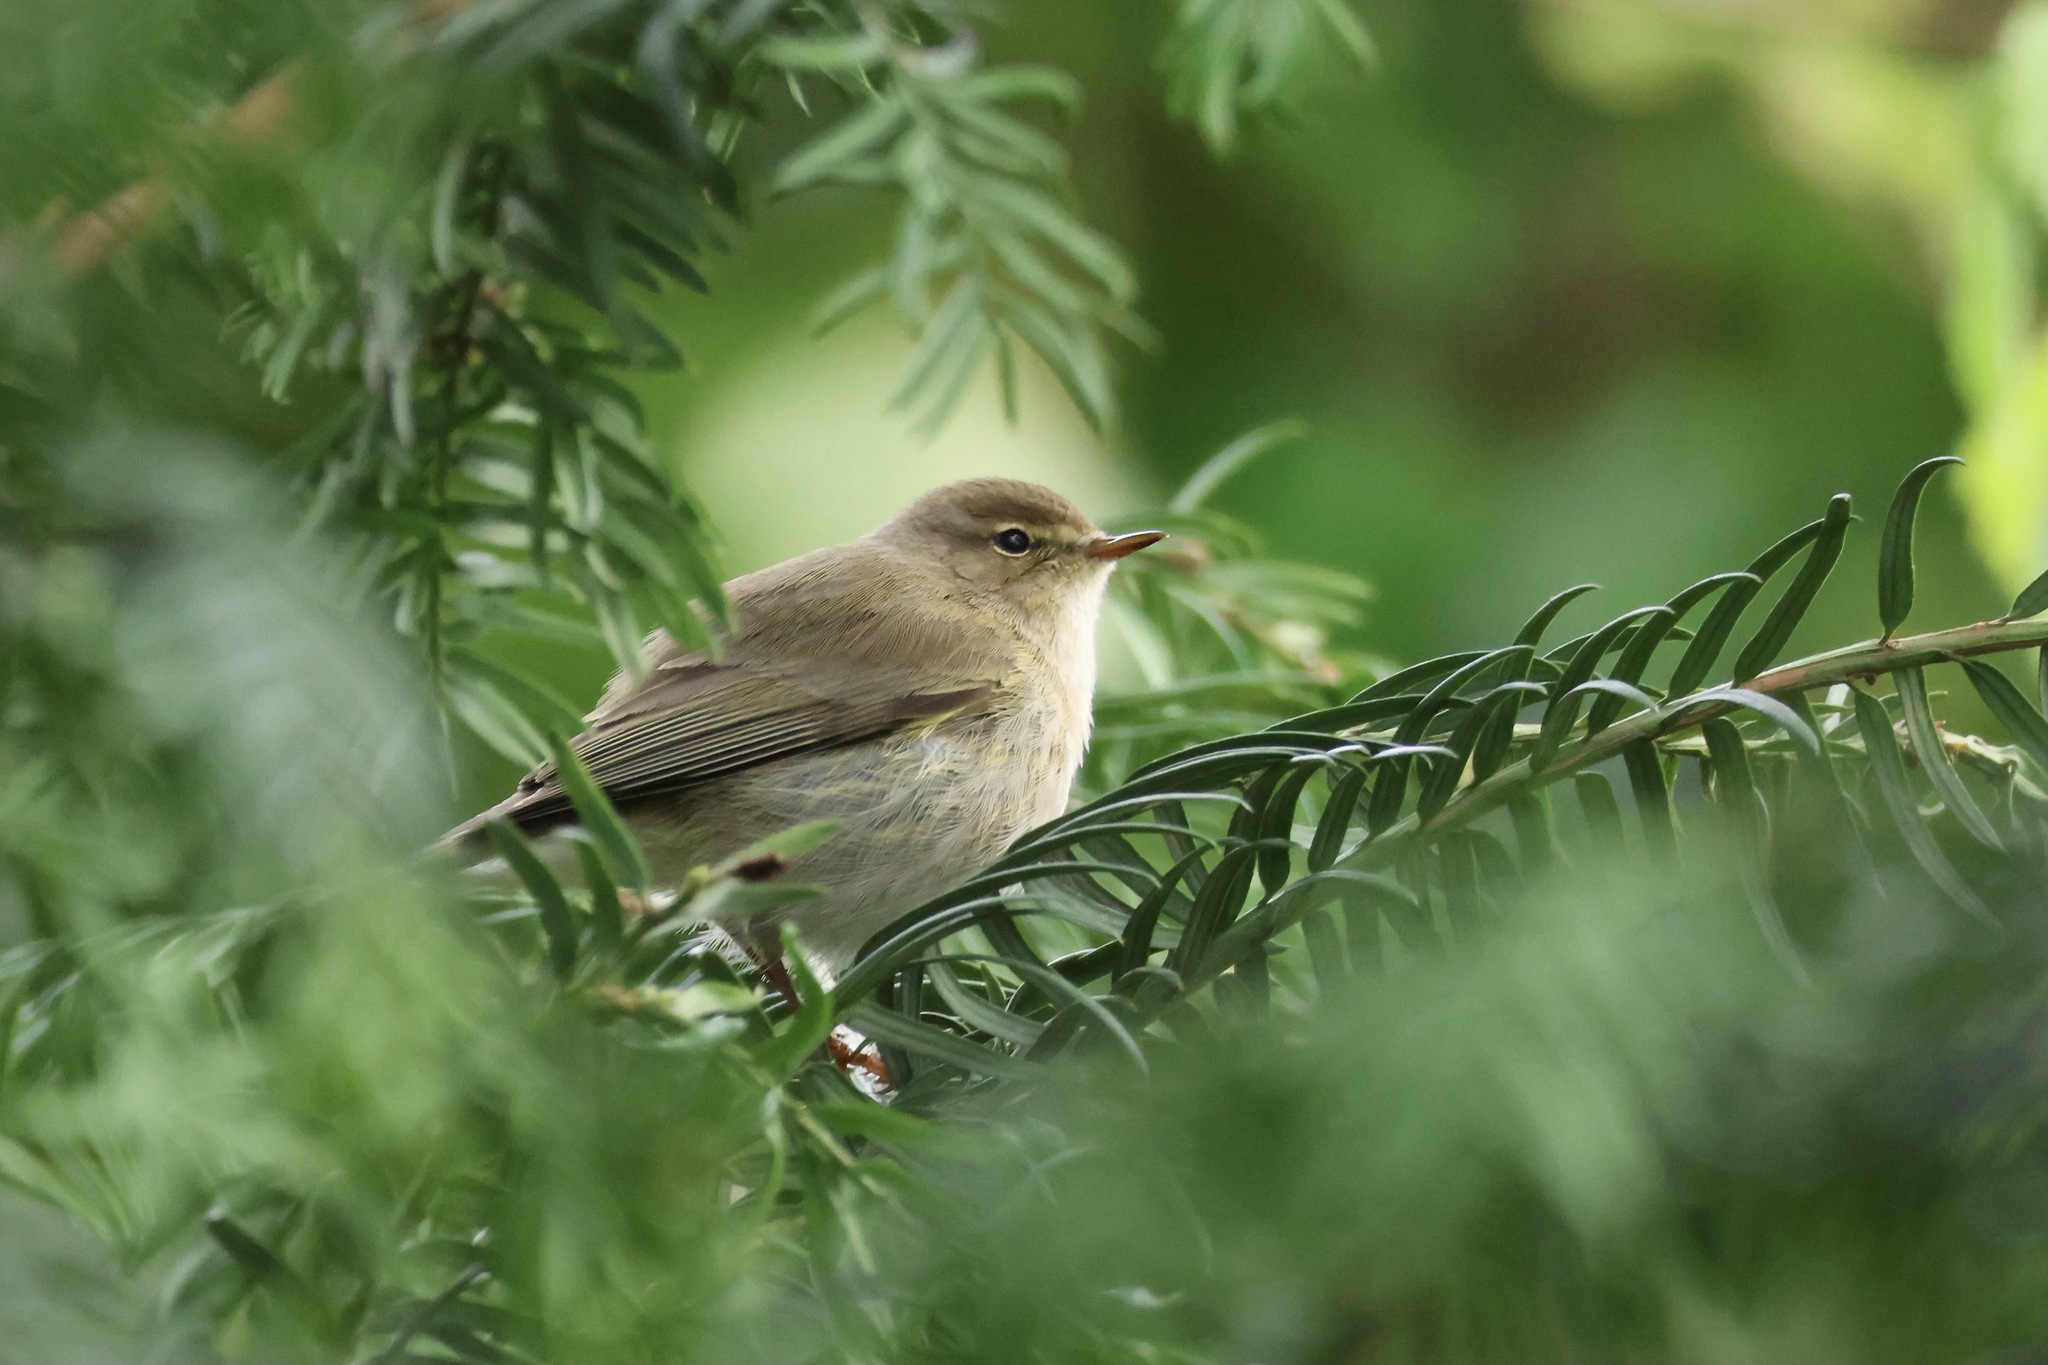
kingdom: Animalia
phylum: Chordata
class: Aves
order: Passeriformes
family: Phylloscopidae
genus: Phylloscopus
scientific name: Phylloscopus collybita
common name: Common chiffchaff
